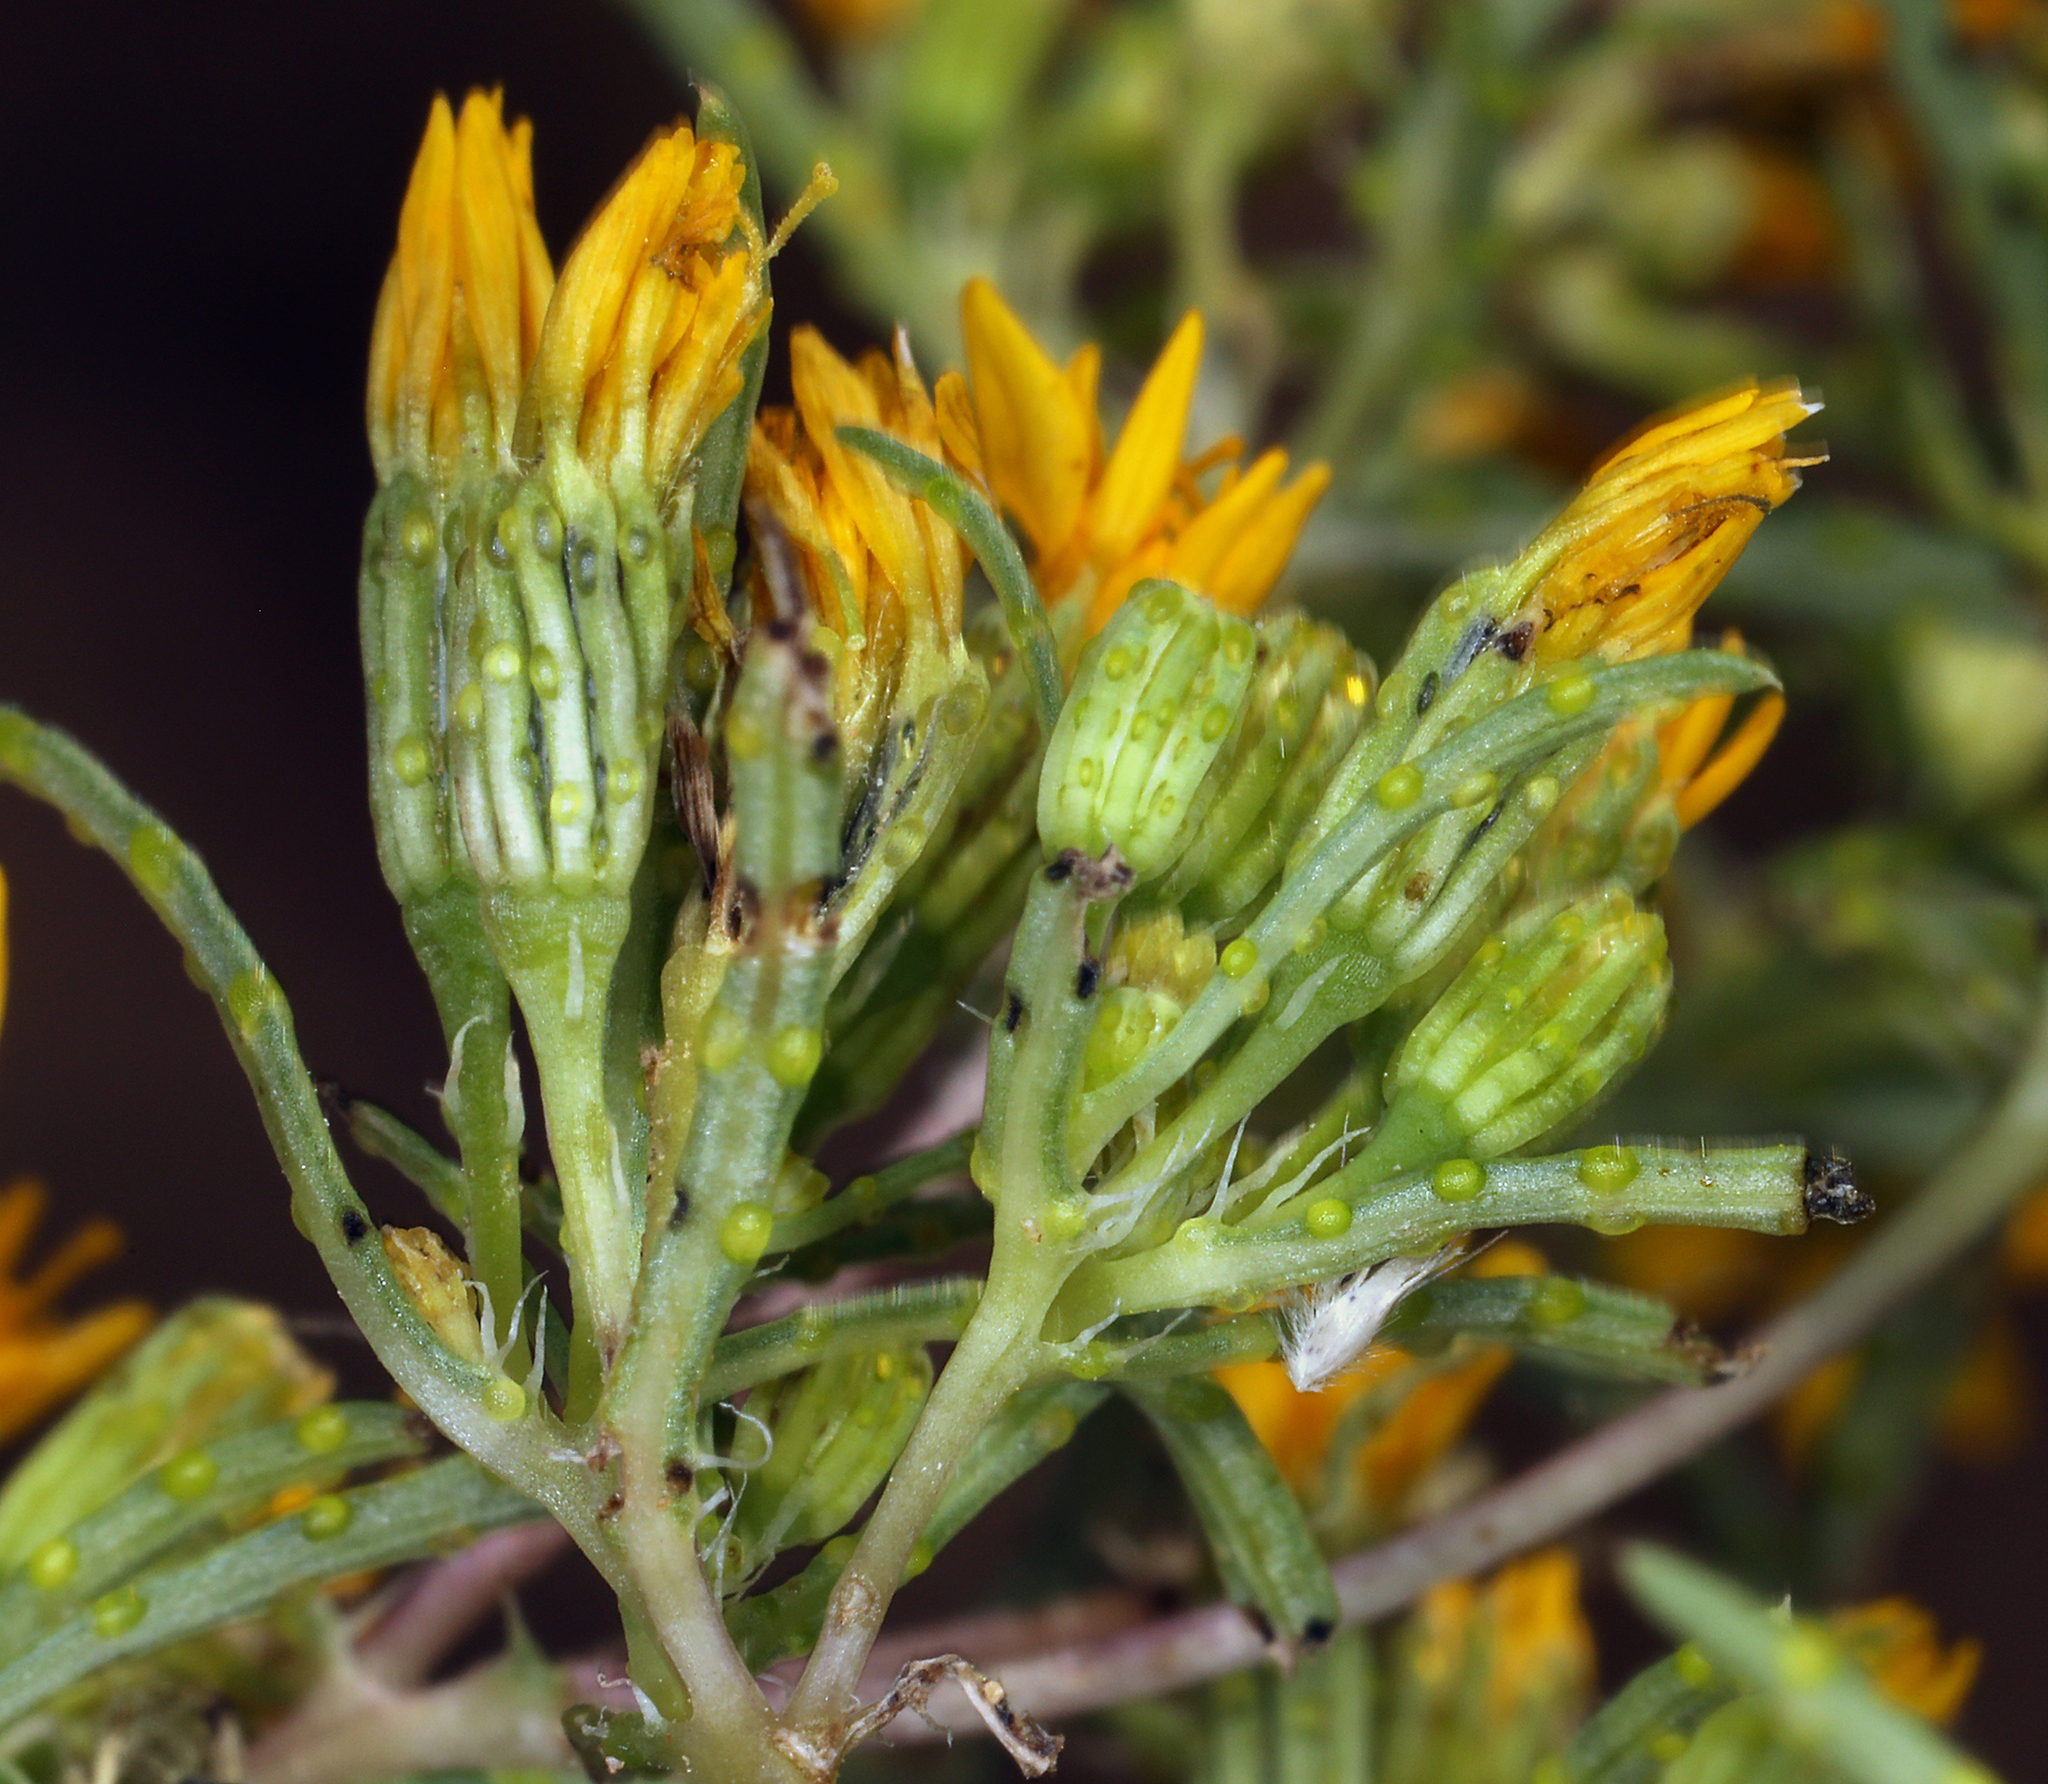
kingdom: Plantae
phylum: Tracheophyta
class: Magnoliopsida
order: Asterales
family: Asteraceae
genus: Pectis
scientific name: Pectis papposa
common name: Many-bristle chinchweed
